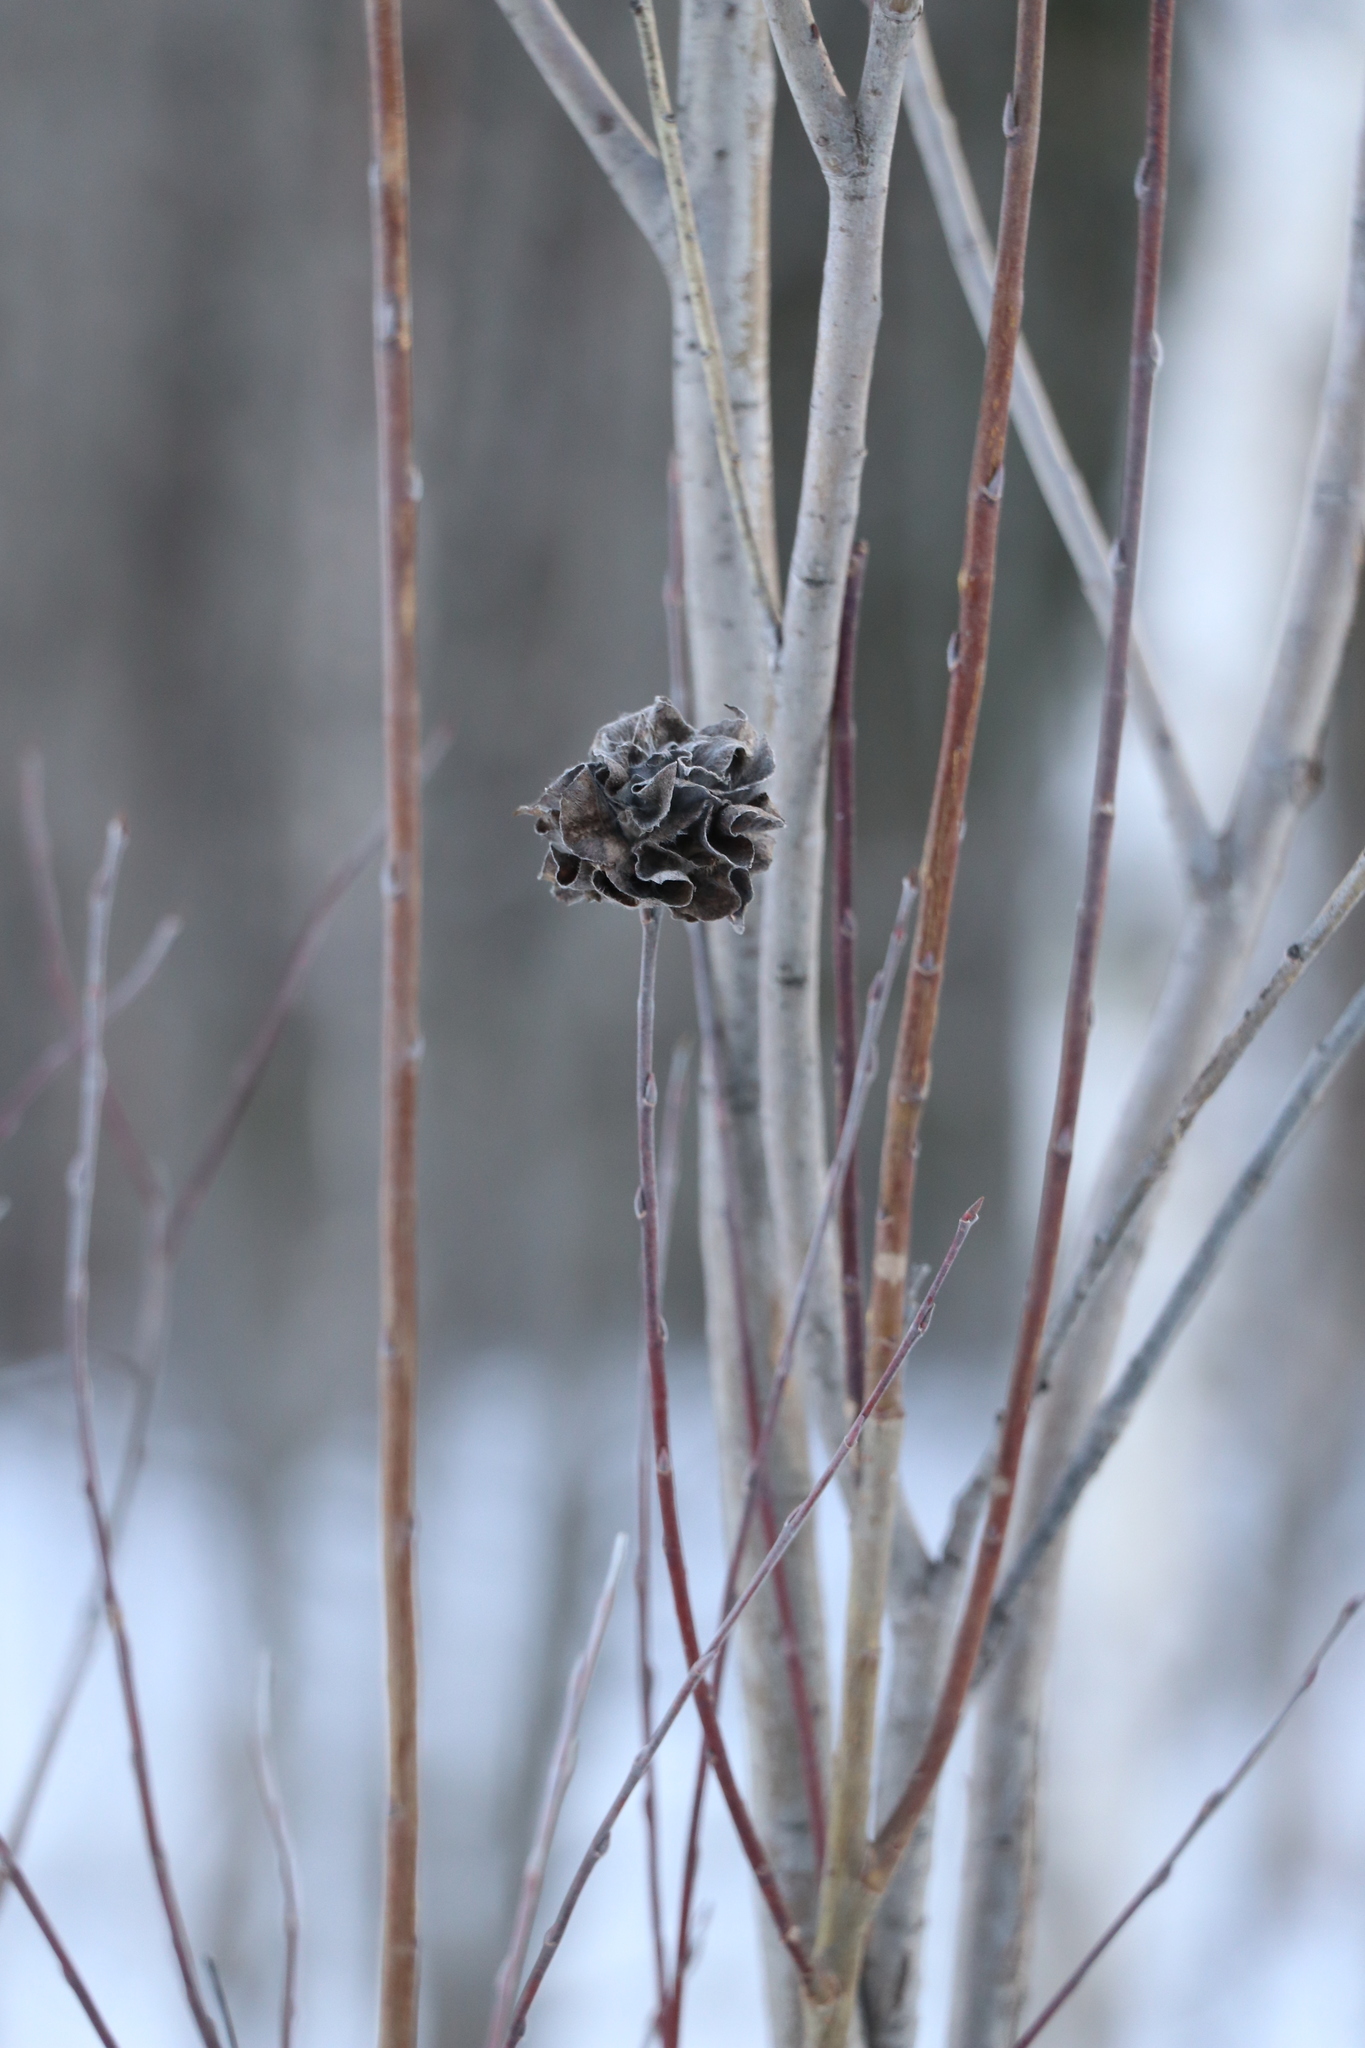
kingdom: Animalia
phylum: Arthropoda
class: Insecta
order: Diptera
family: Cecidomyiidae
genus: Rabdophaga
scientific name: Rabdophaga rosaria
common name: Willow rose gall midge
